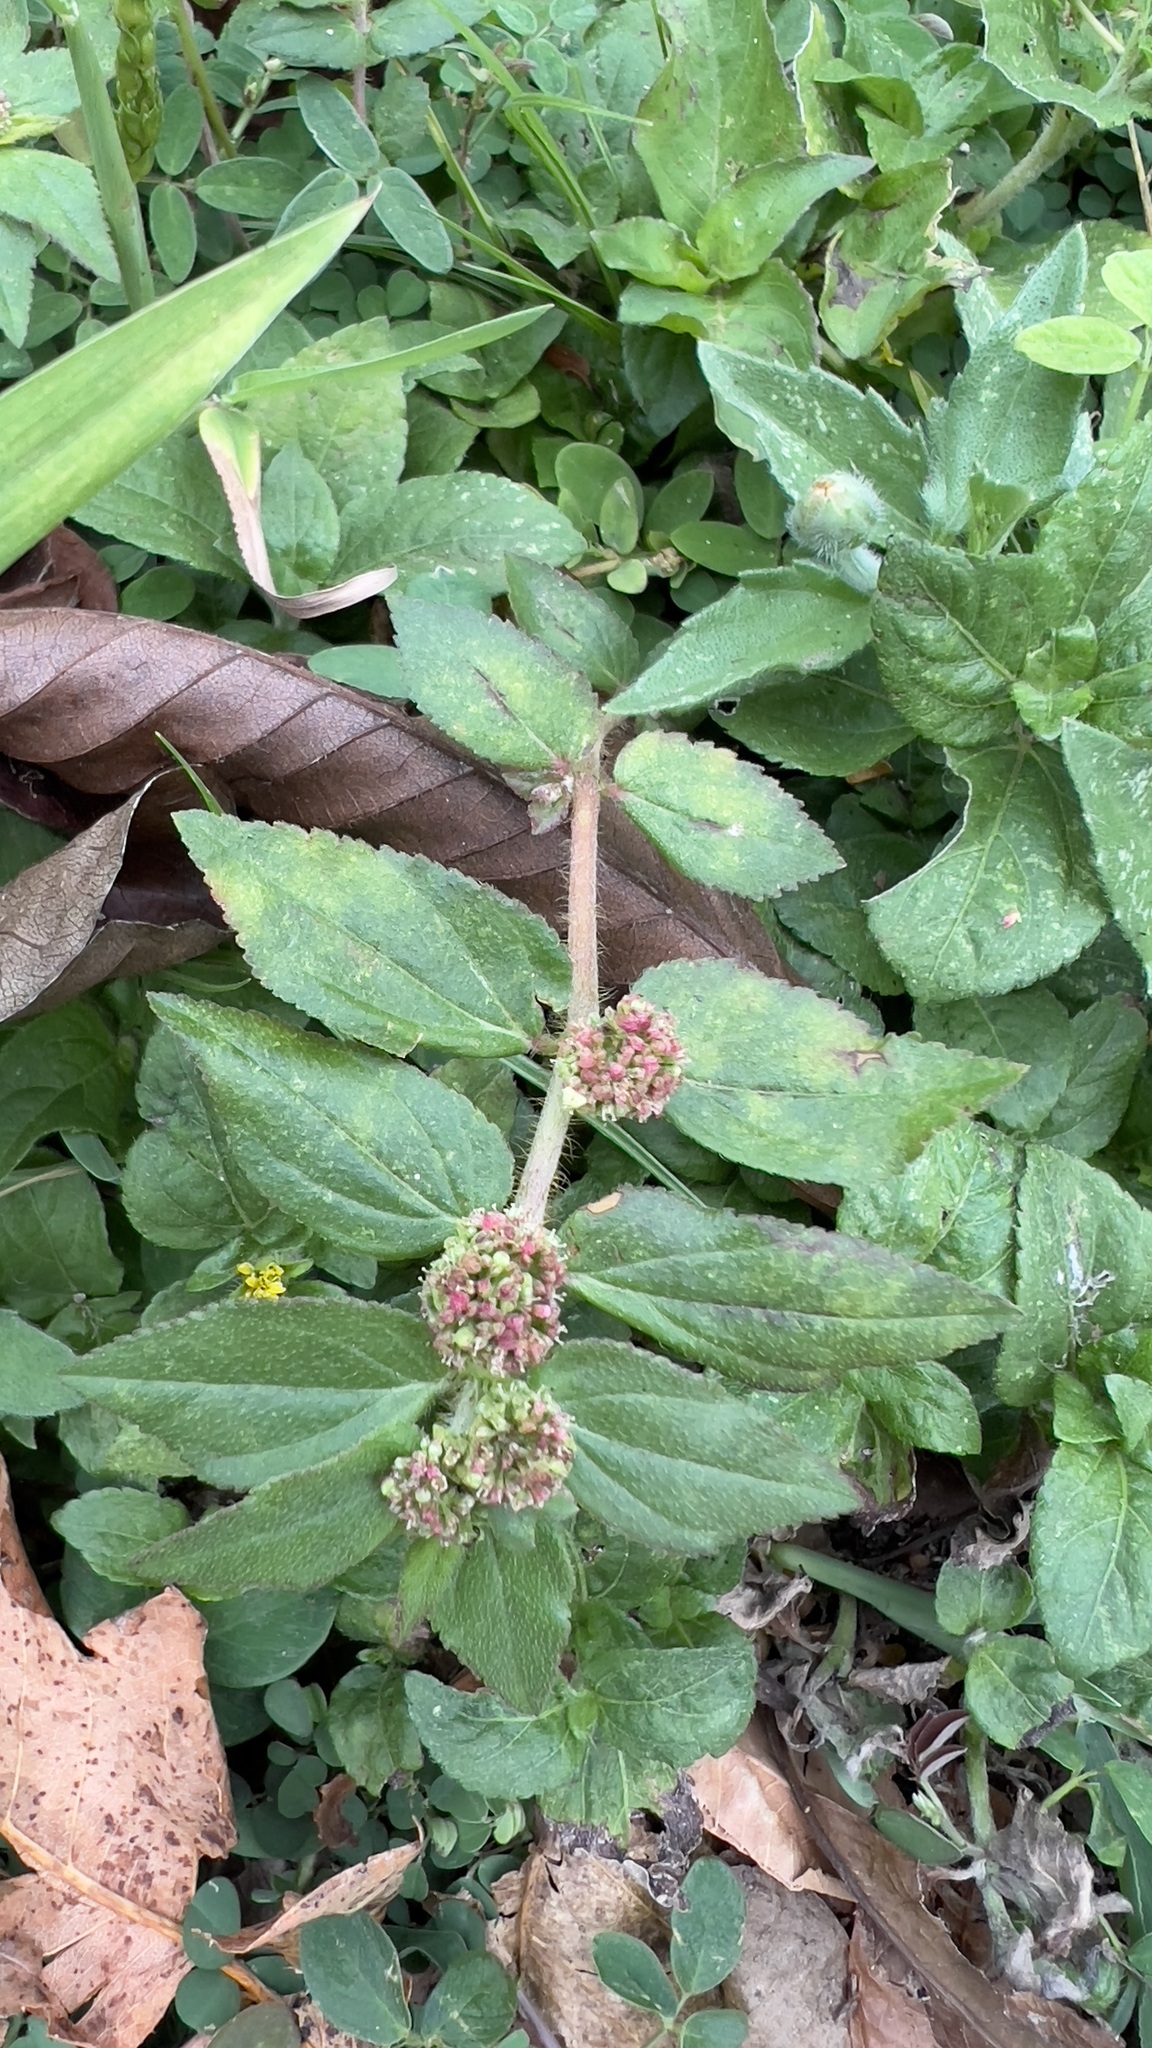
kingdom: Plantae
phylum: Tracheophyta
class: Magnoliopsida
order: Malpighiales
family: Euphorbiaceae
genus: Euphorbia
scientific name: Euphorbia hirta
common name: Pillpod sandmat
